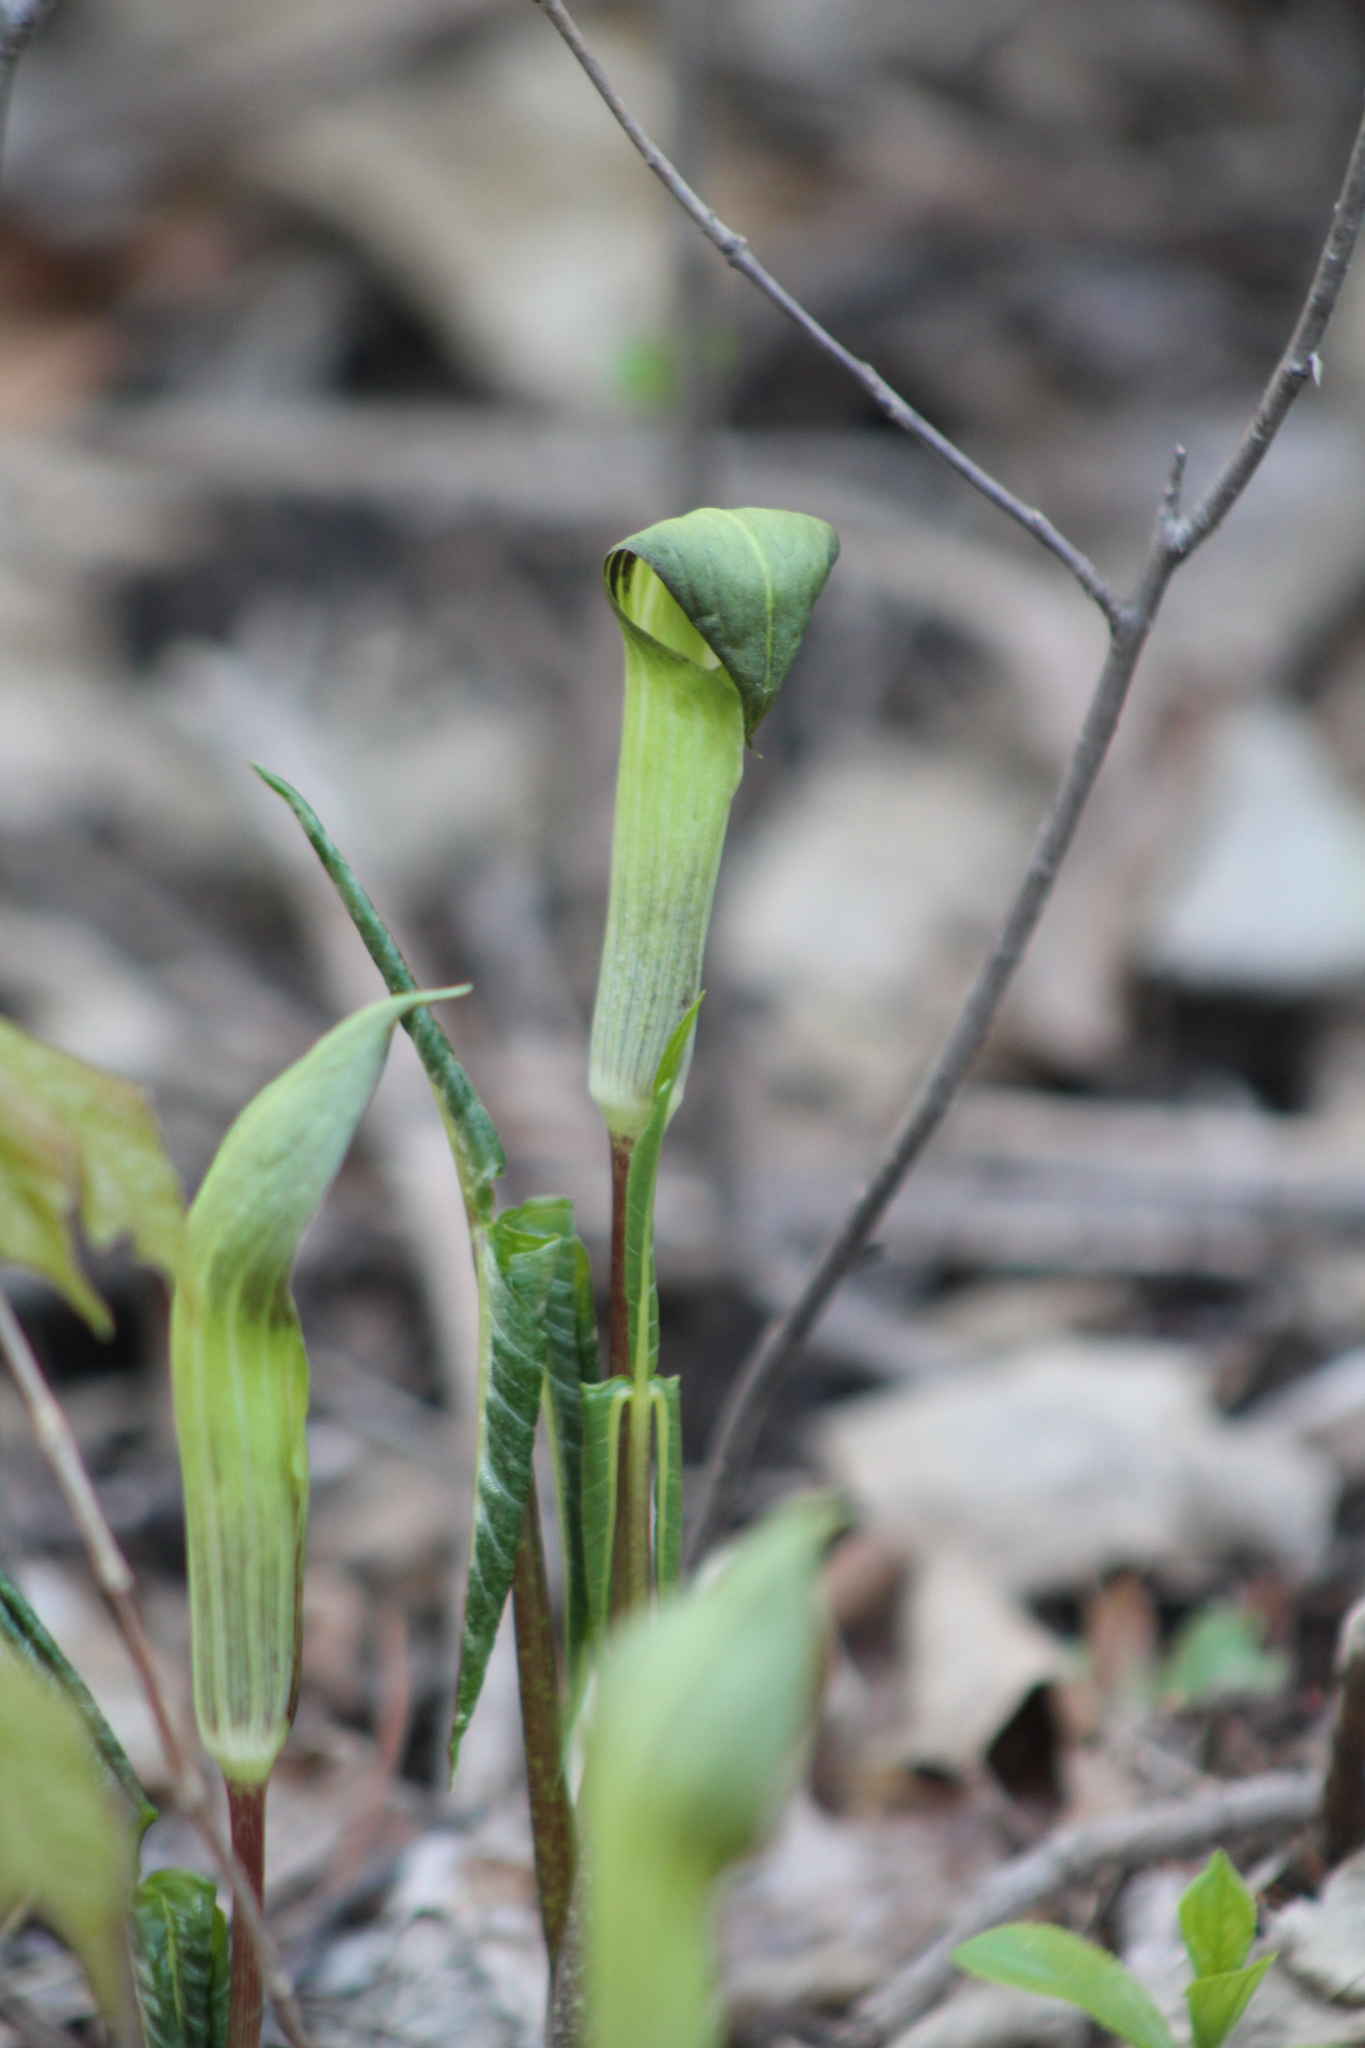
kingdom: Plantae
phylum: Tracheophyta
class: Liliopsida
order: Alismatales
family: Araceae
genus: Arisaema
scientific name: Arisaema triphyllum
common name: Jack-in-the-pulpit
